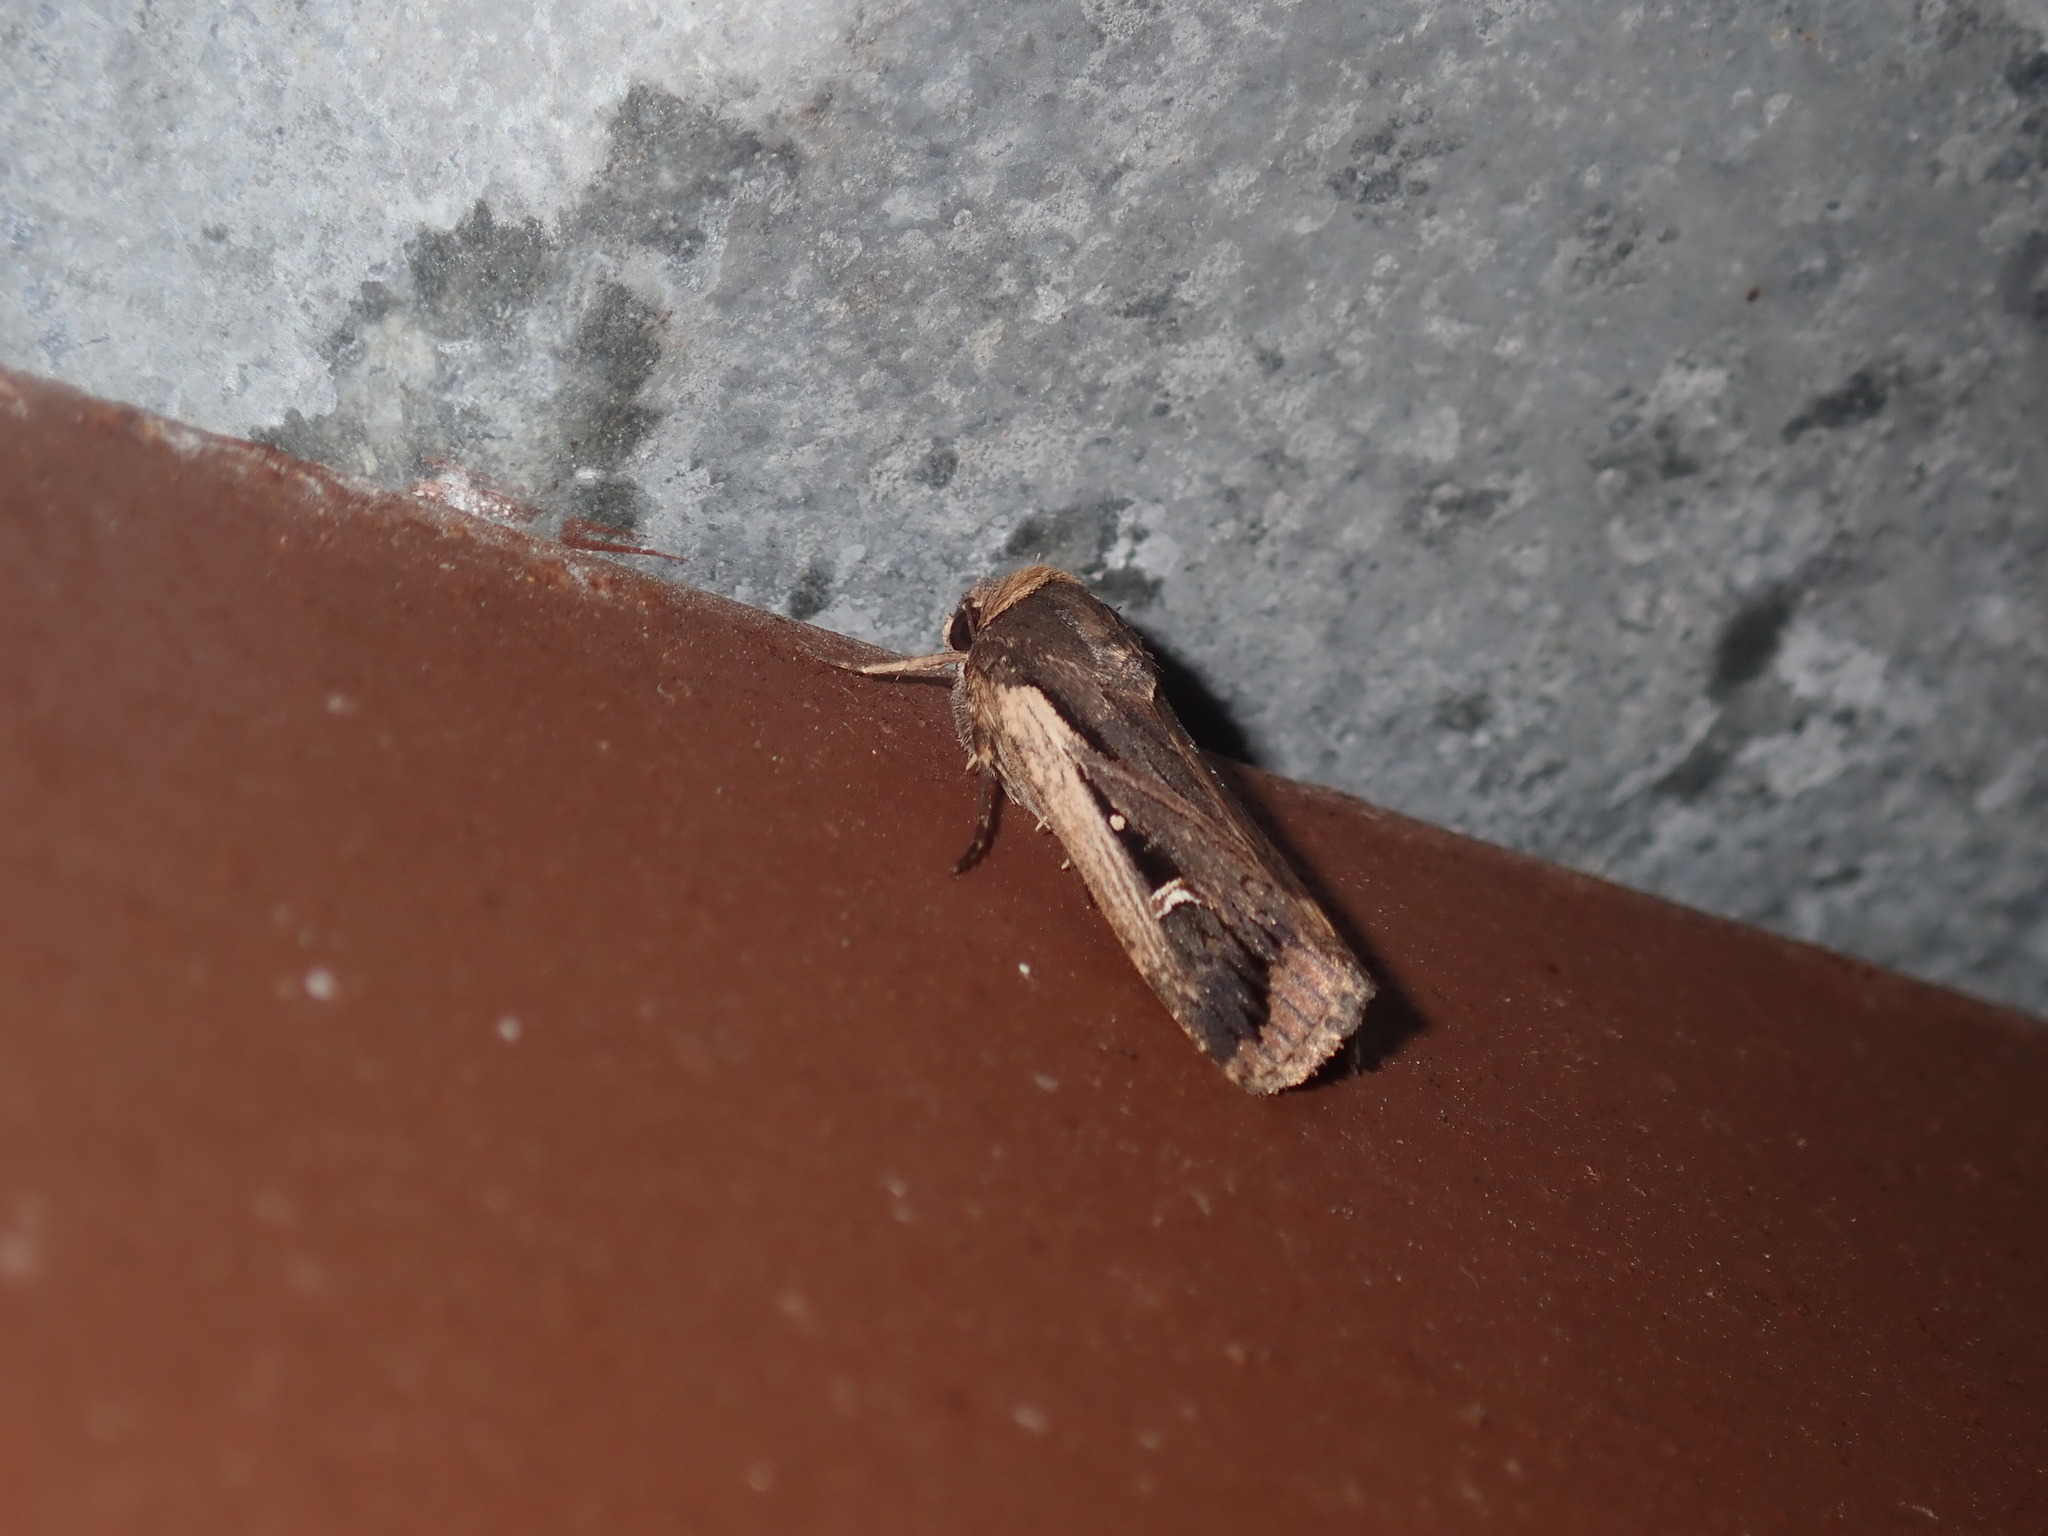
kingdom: Animalia
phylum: Arthropoda
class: Insecta
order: Lepidoptera
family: Noctuidae
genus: Proteuxoa
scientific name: Proteuxoa tortisigna
